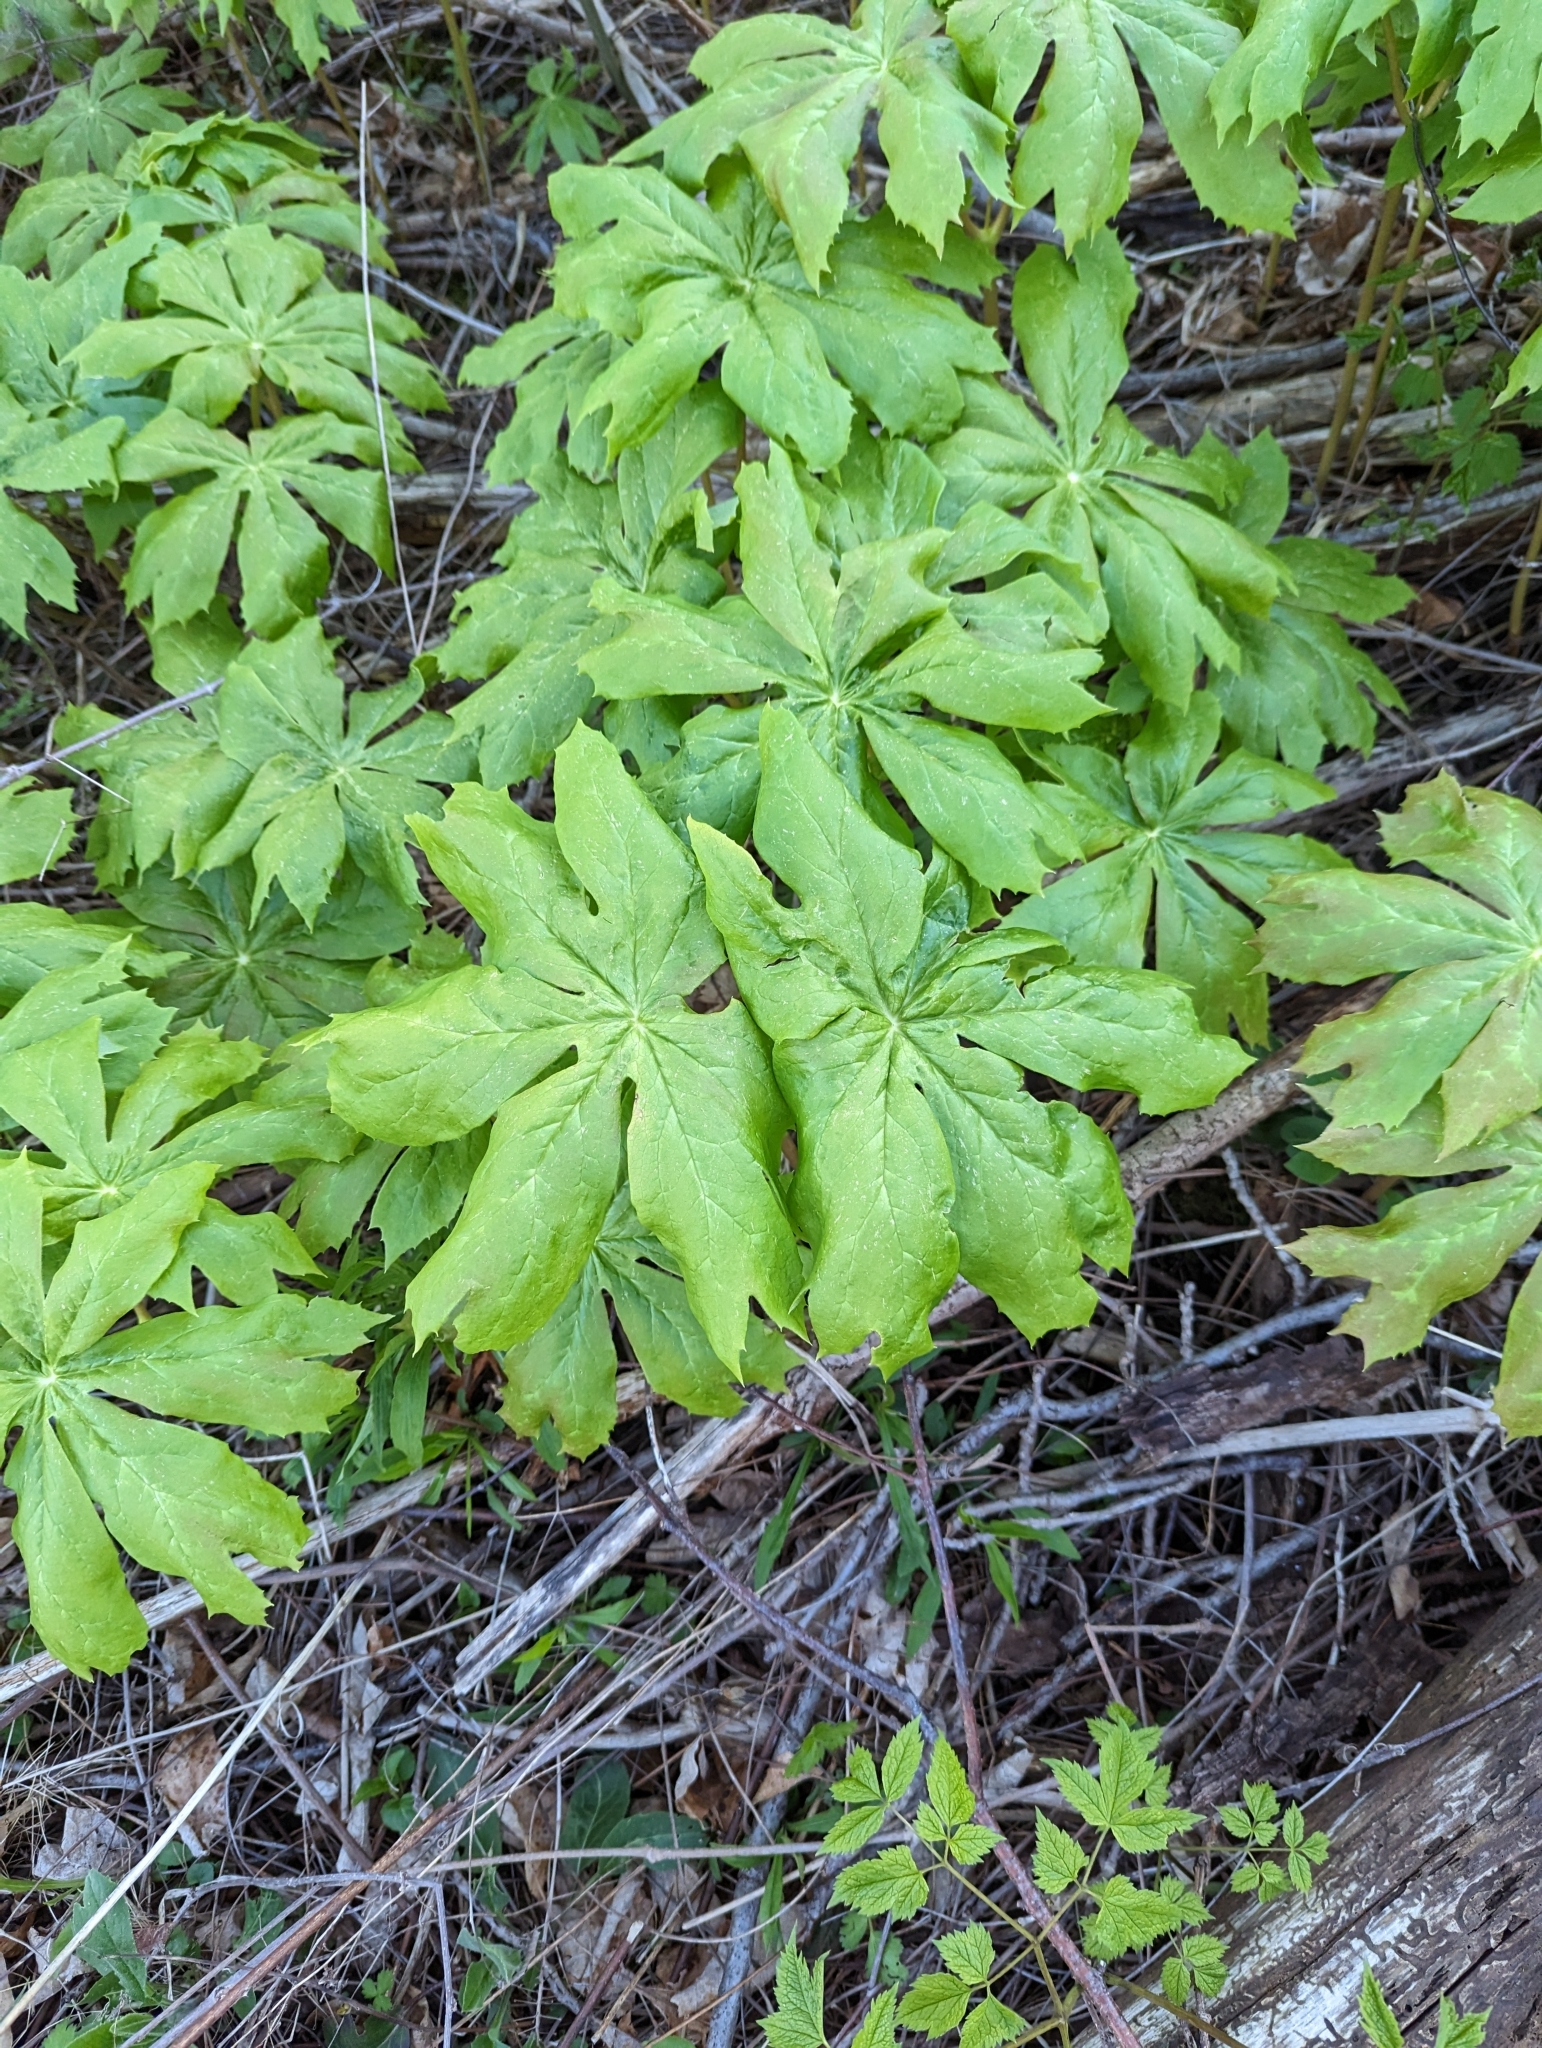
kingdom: Plantae
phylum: Tracheophyta
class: Magnoliopsida
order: Ranunculales
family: Berberidaceae
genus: Podophyllum
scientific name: Podophyllum peltatum
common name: Wild mandrake
